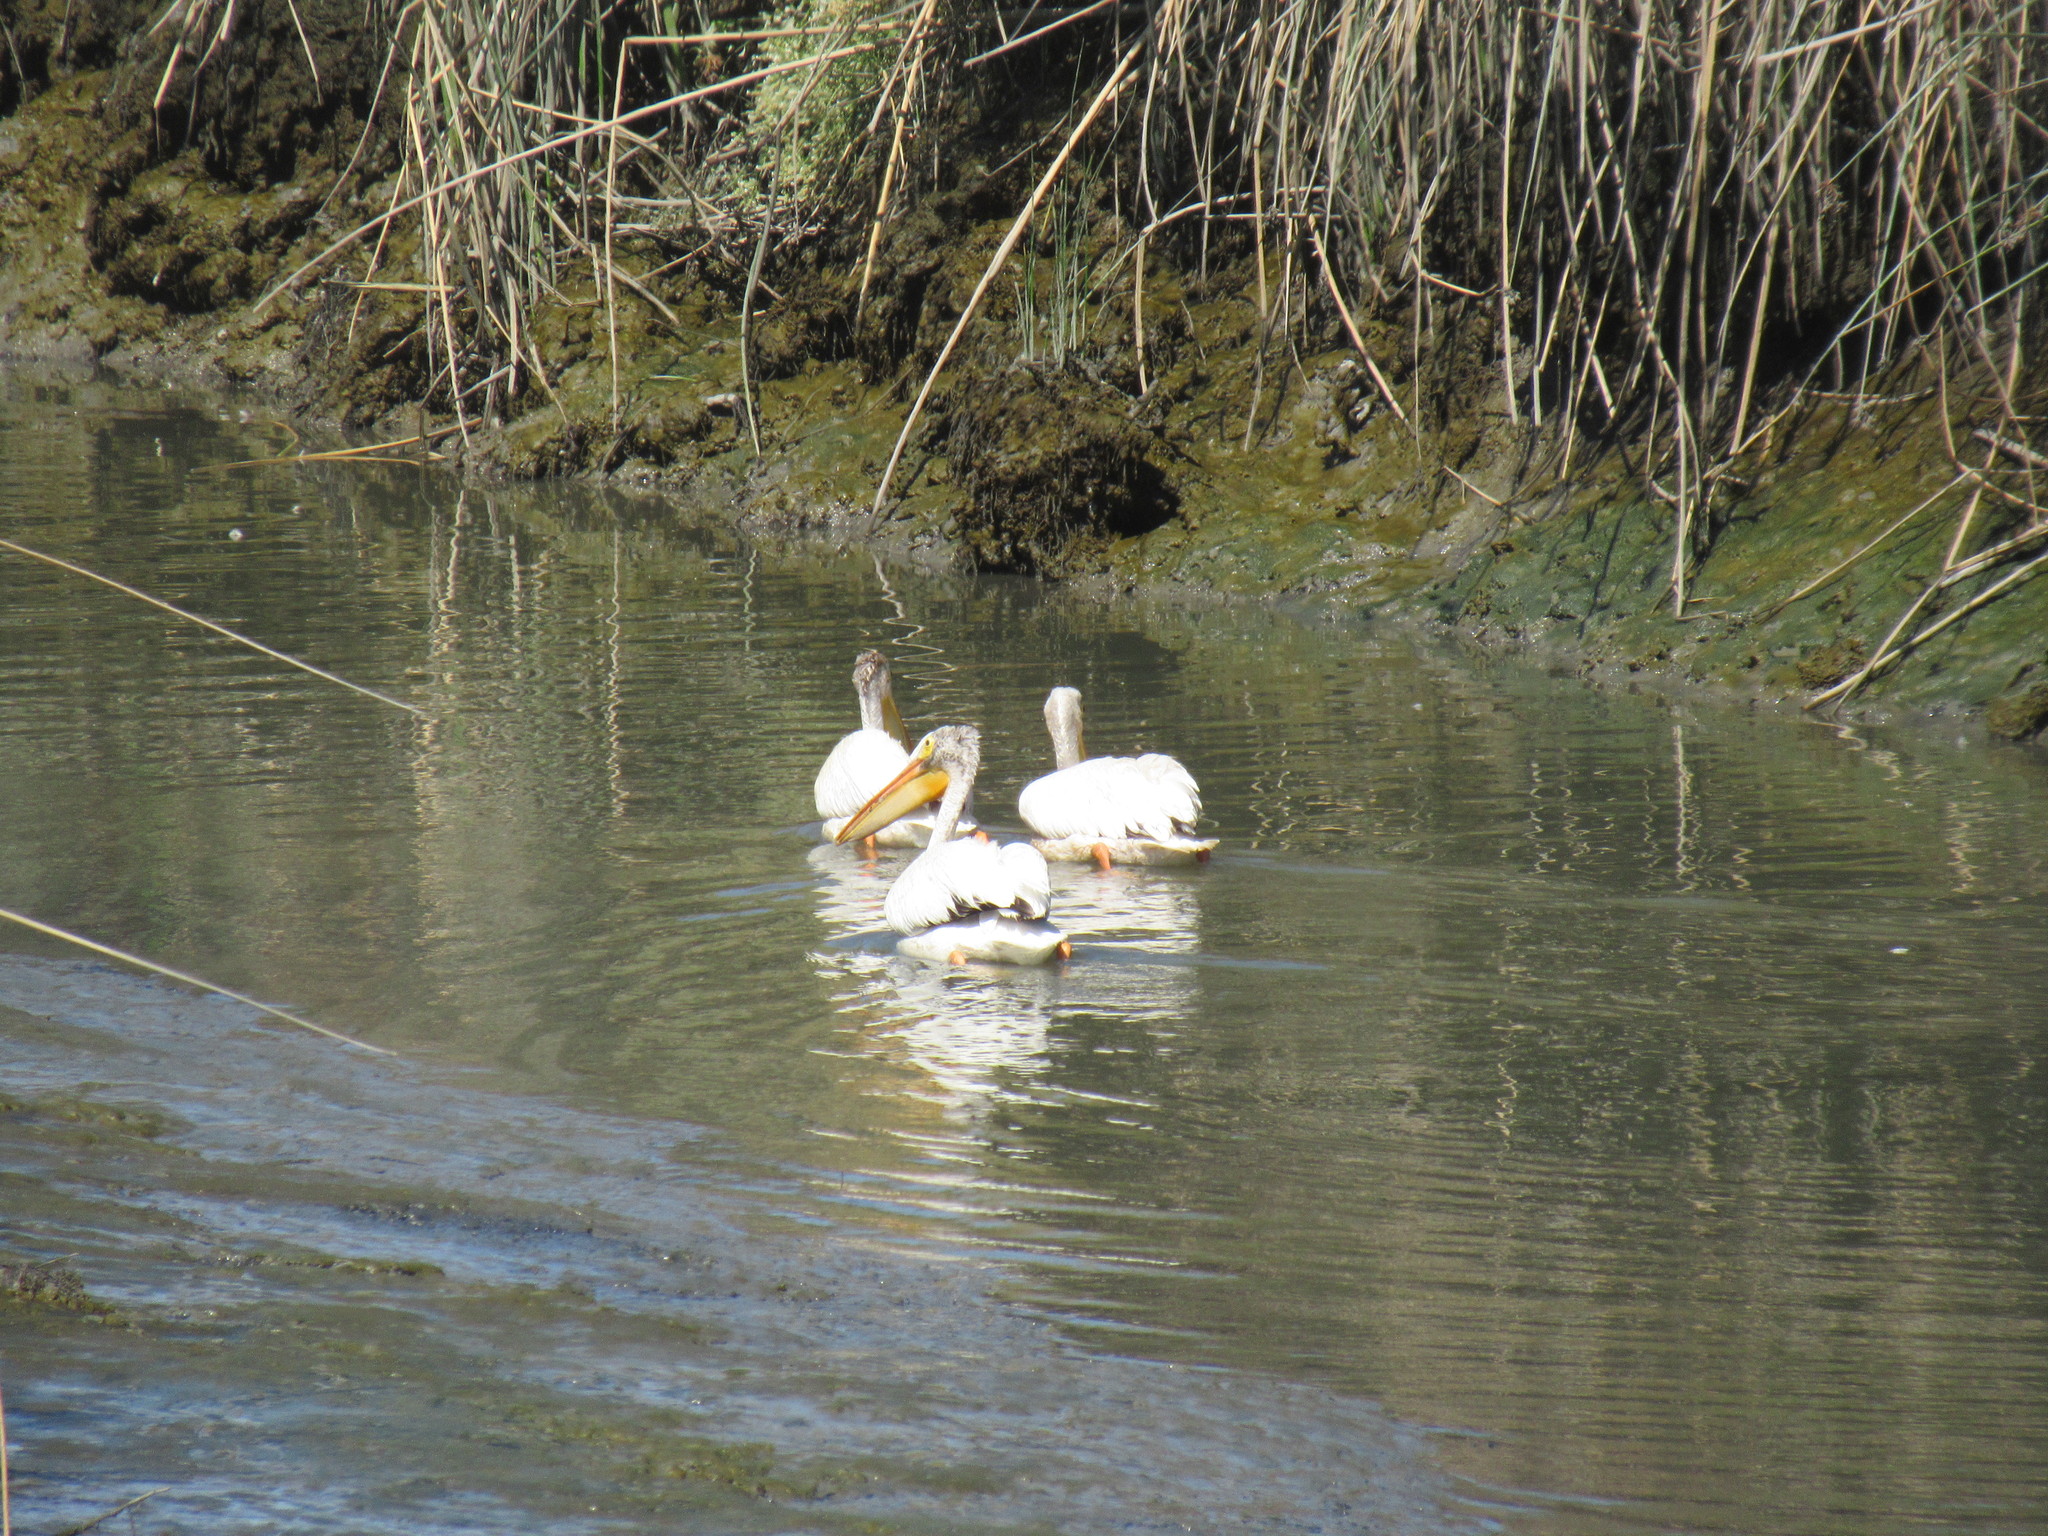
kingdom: Animalia
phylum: Chordata
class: Aves
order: Pelecaniformes
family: Pelecanidae
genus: Pelecanus
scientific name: Pelecanus erythrorhynchos
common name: American white pelican
